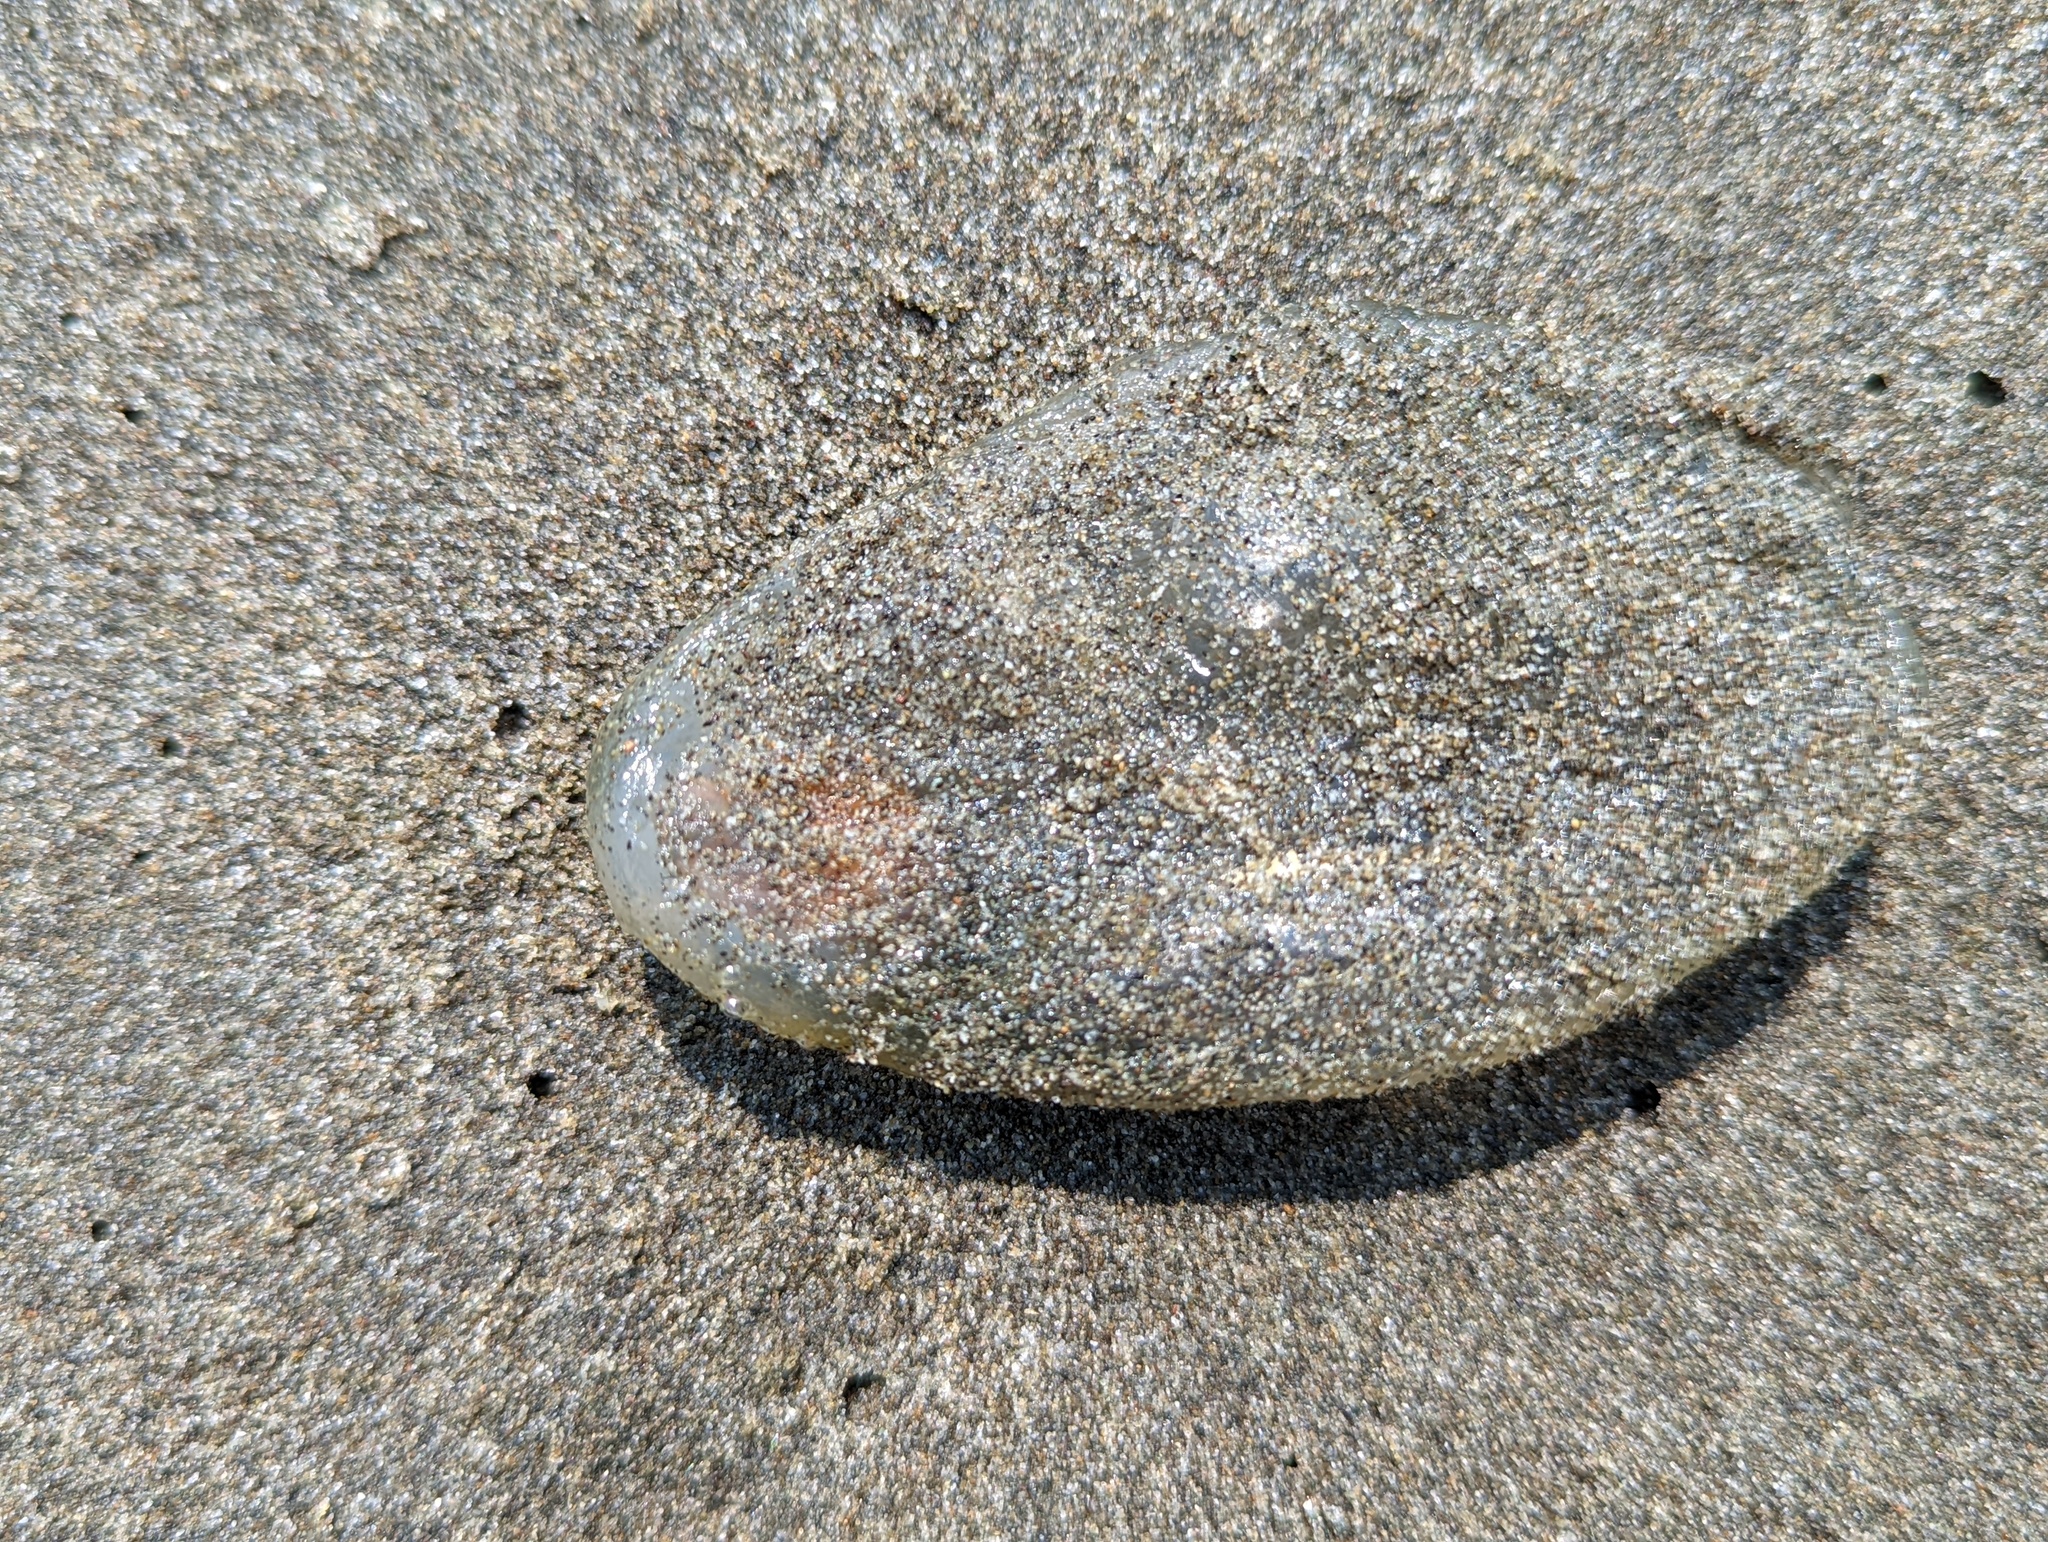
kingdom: Animalia
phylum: Chordata
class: Thaliacea
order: Salpida
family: Salpidae
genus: Thetys
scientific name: Thetys vagina
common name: Vagina salp
